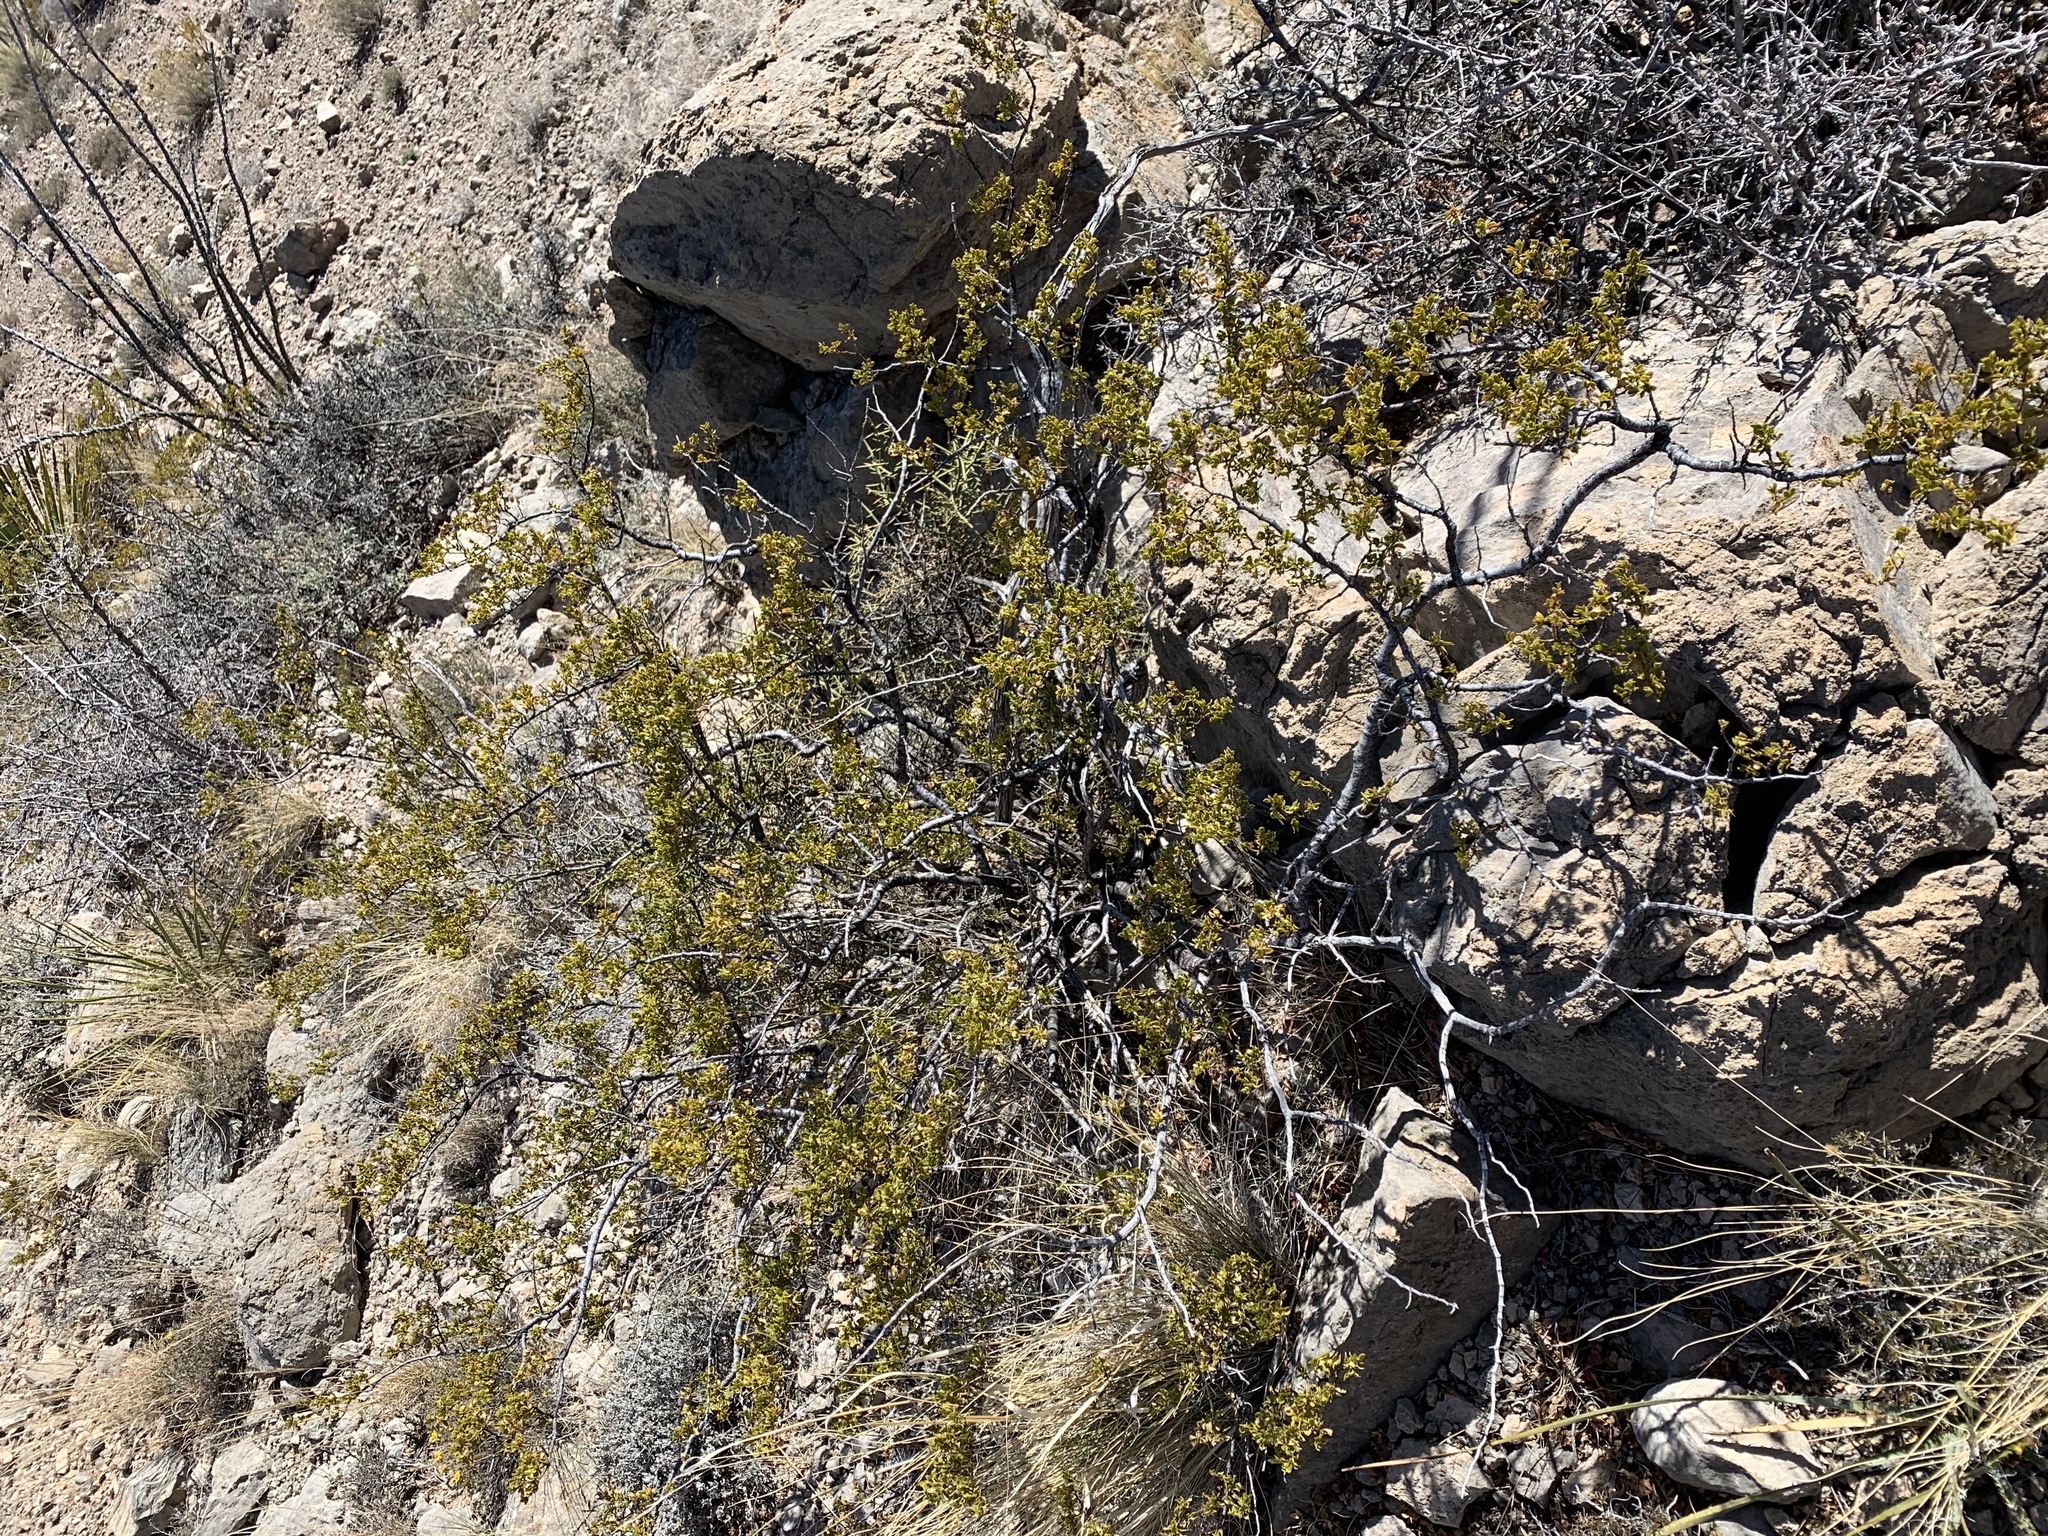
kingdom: Plantae
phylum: Tracheophyta
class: Magnoliopsida
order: Zygophyllales
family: Zygophyllaceae
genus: Larrea
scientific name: Larrea tridentata
